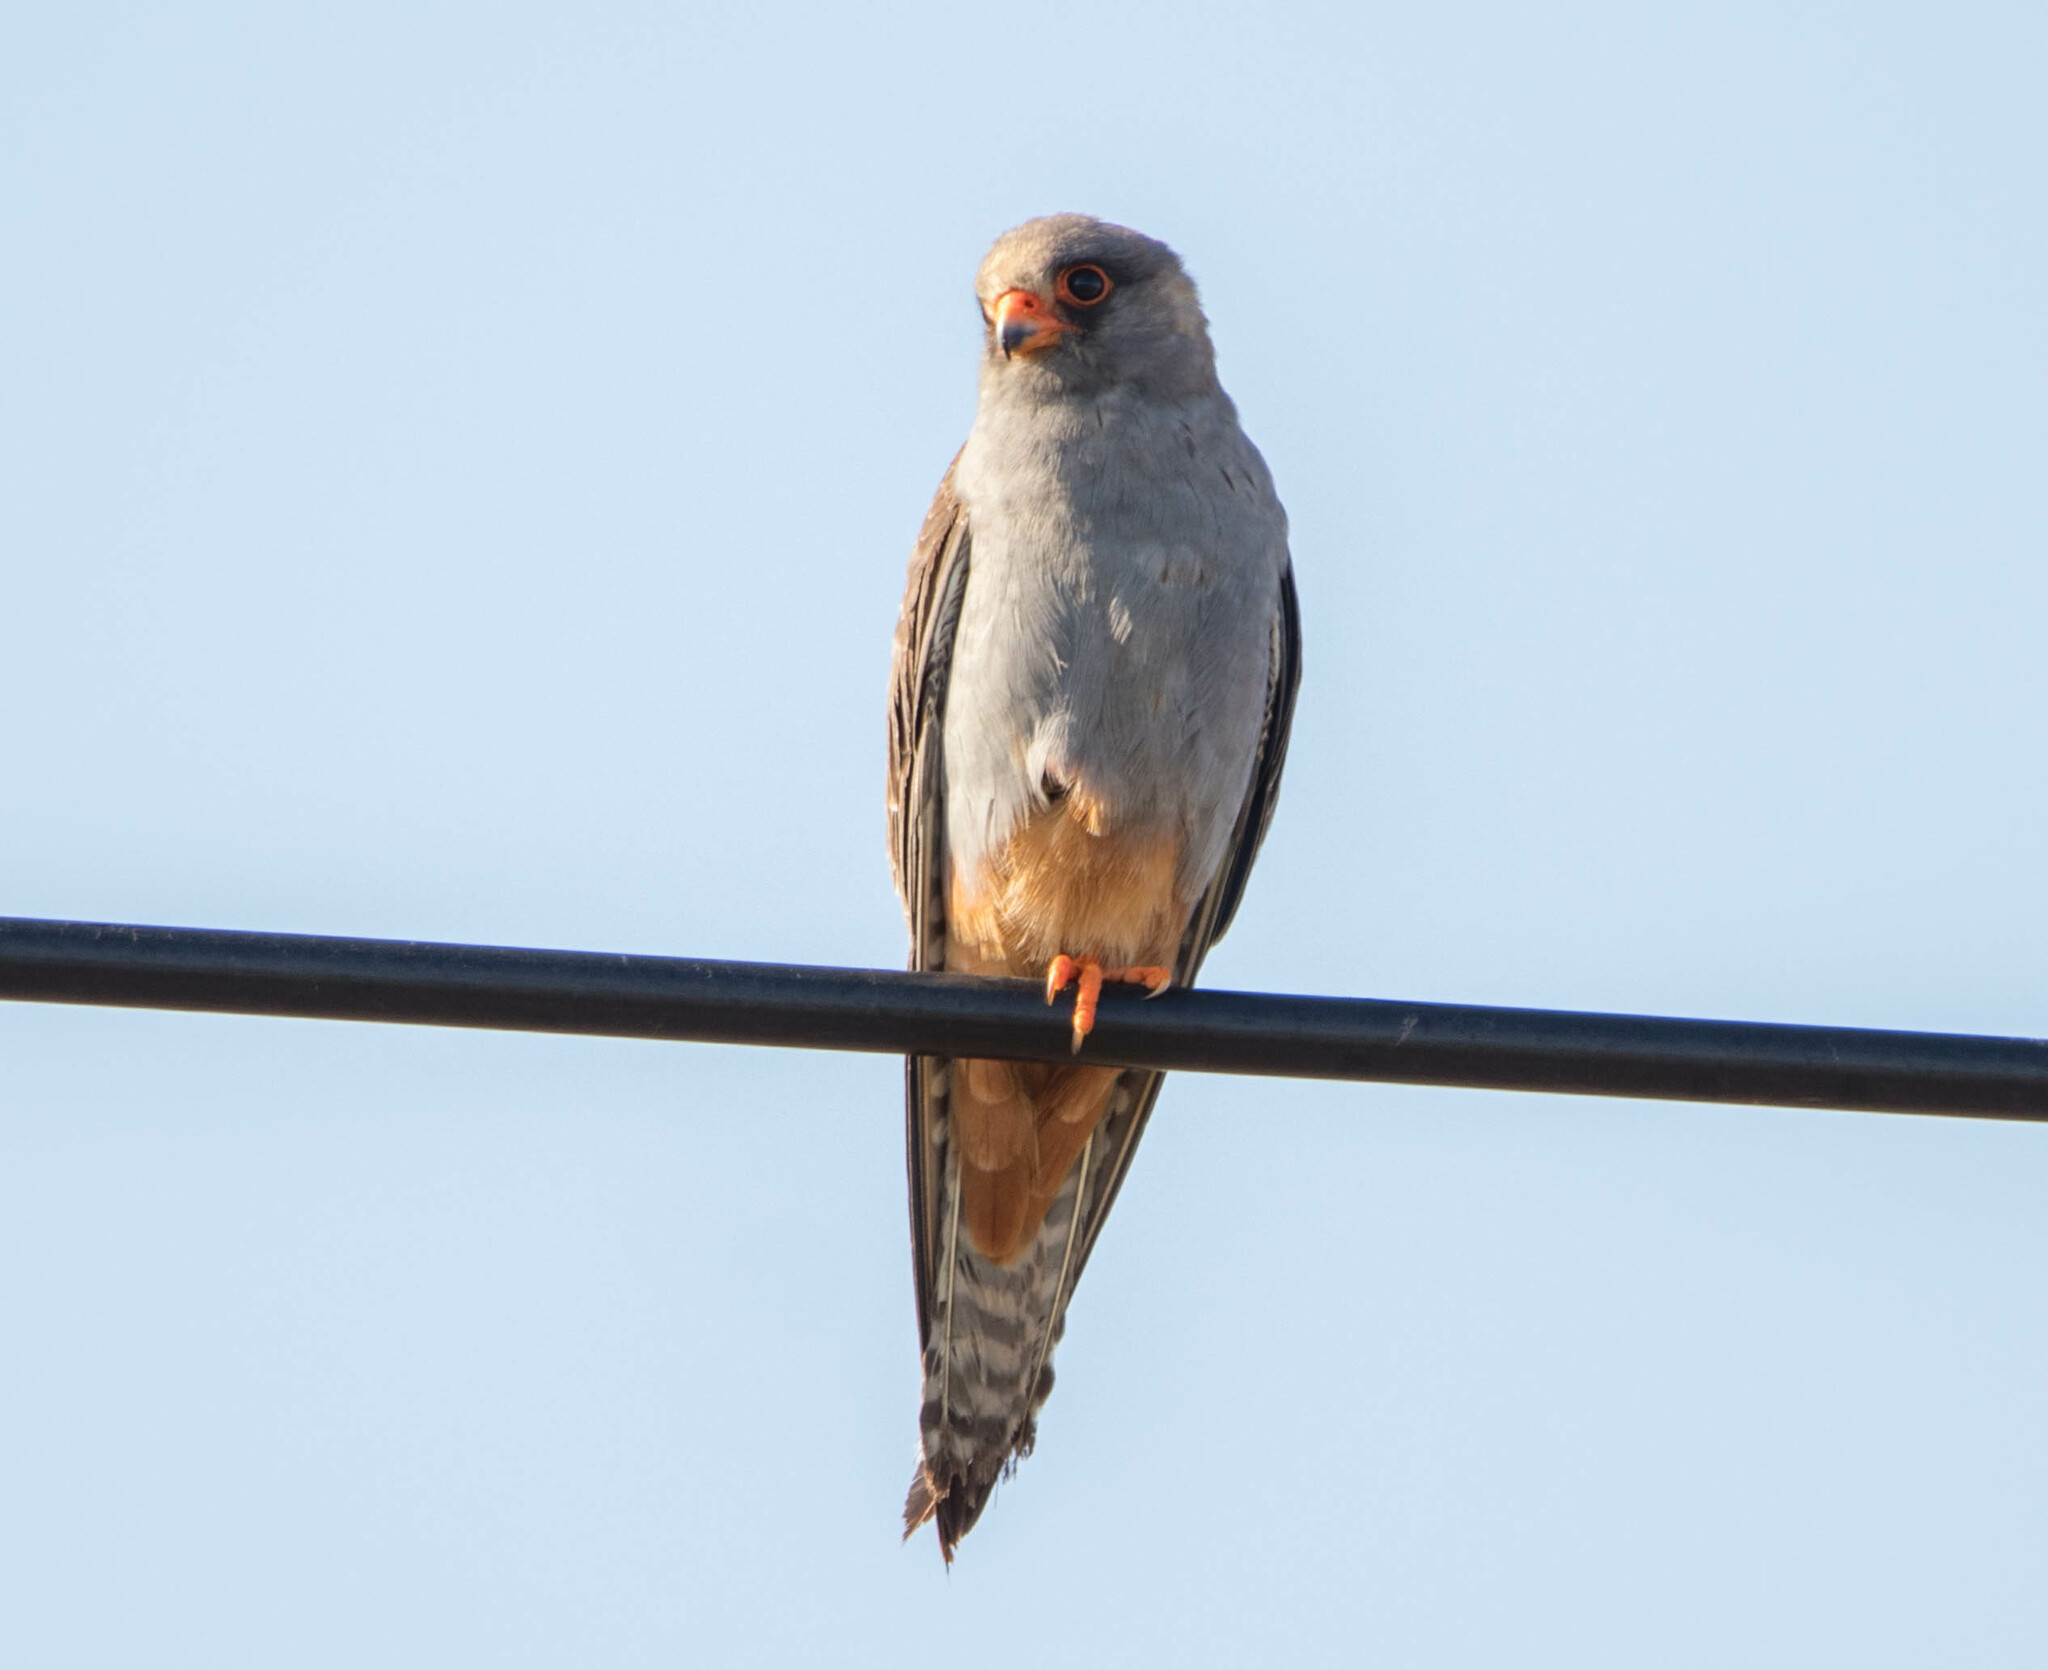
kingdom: Animalia
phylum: Chordata
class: Aves
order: Falconiformes
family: Falconidae
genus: Falco
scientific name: Falco vespertinus
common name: Red-footed falcon
